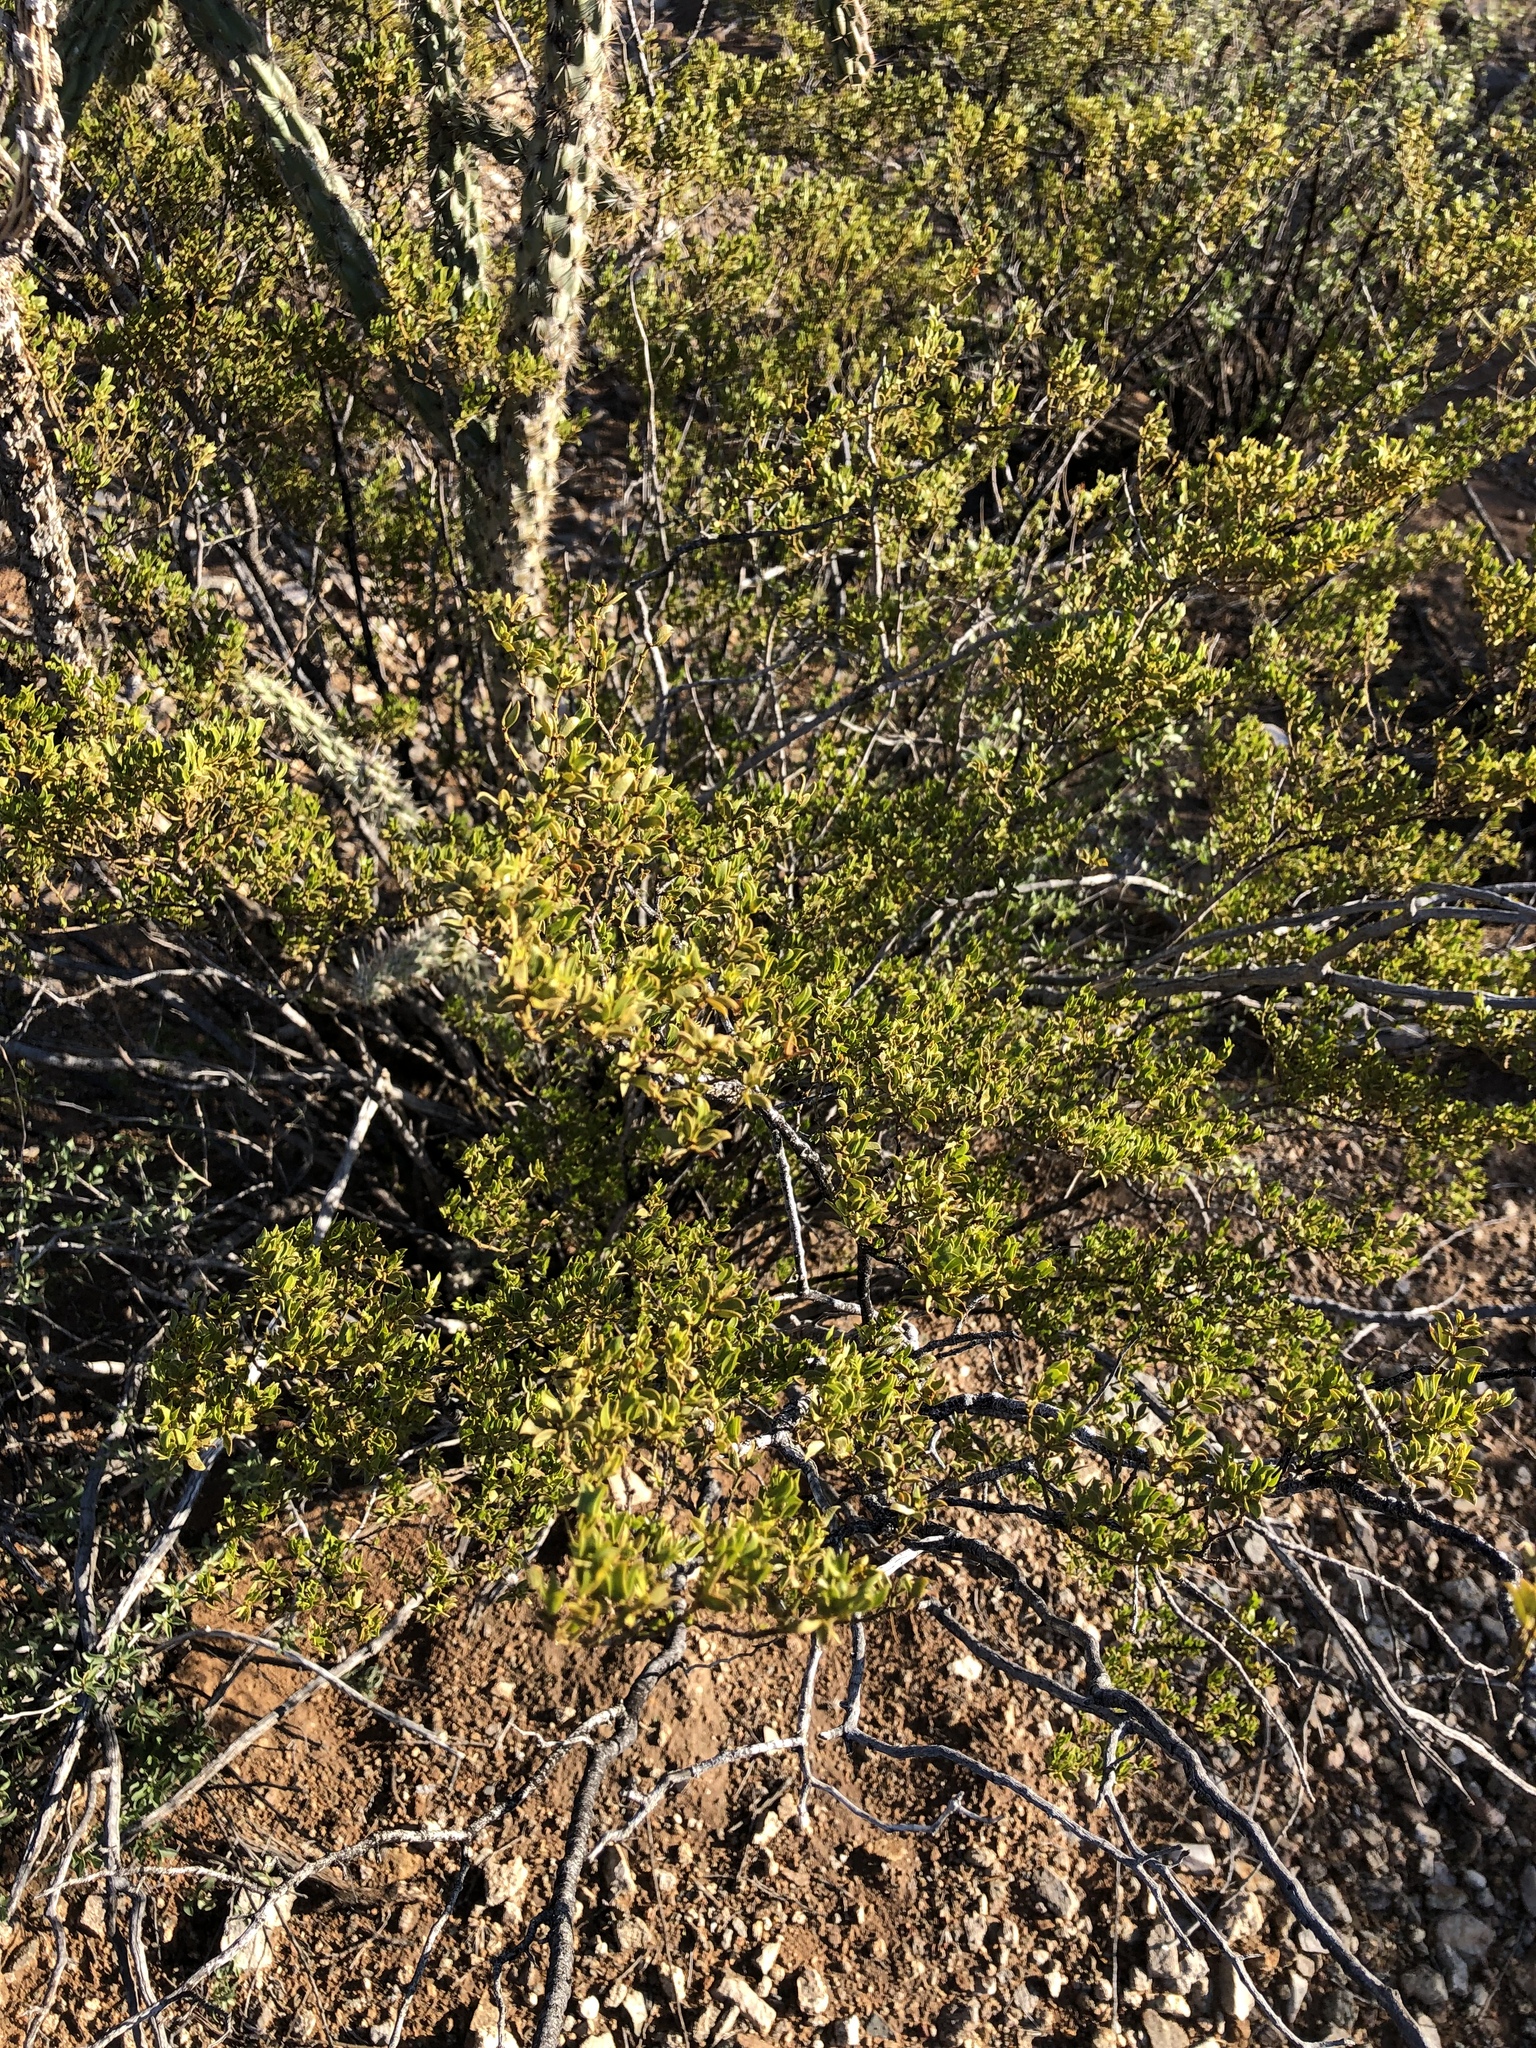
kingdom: Plantae
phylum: Tracheophyta
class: Magnoliopsida
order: Zygophyllales
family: Zygophyllaceae
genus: Larrea
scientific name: Larrea tridentata
